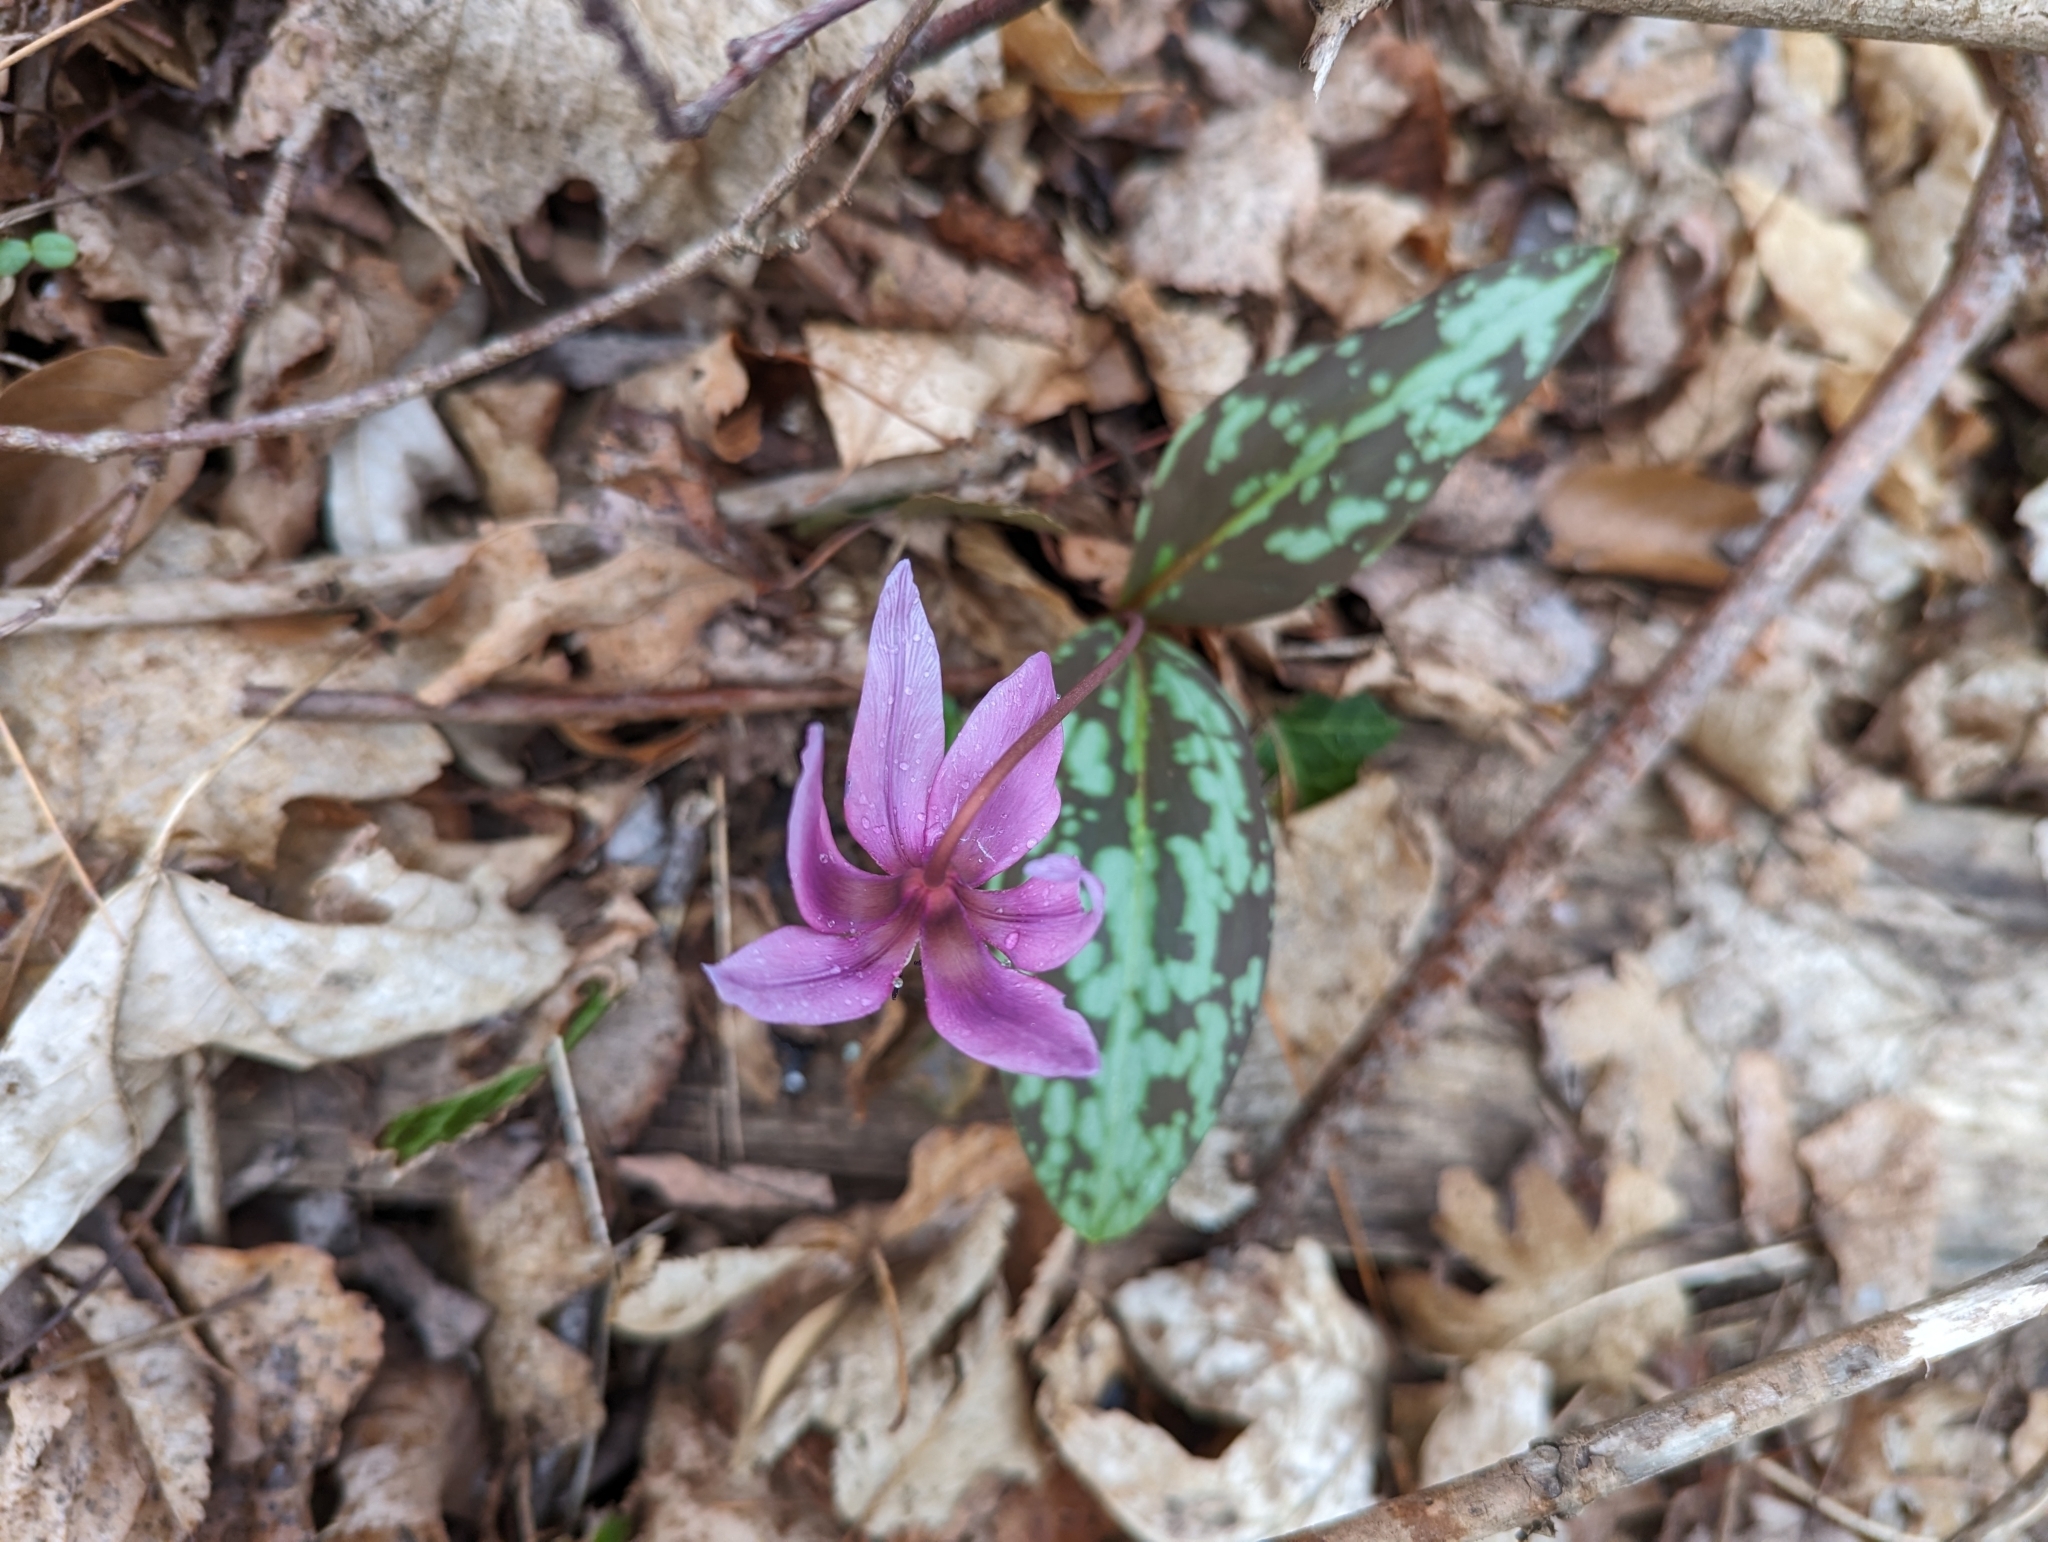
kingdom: Plantae
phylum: Tracheophyta
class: Liliopsida
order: Liliales
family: Liliaceae
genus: Erythronium
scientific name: Erythronium dens-canis
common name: Dog's-tooth-violet
